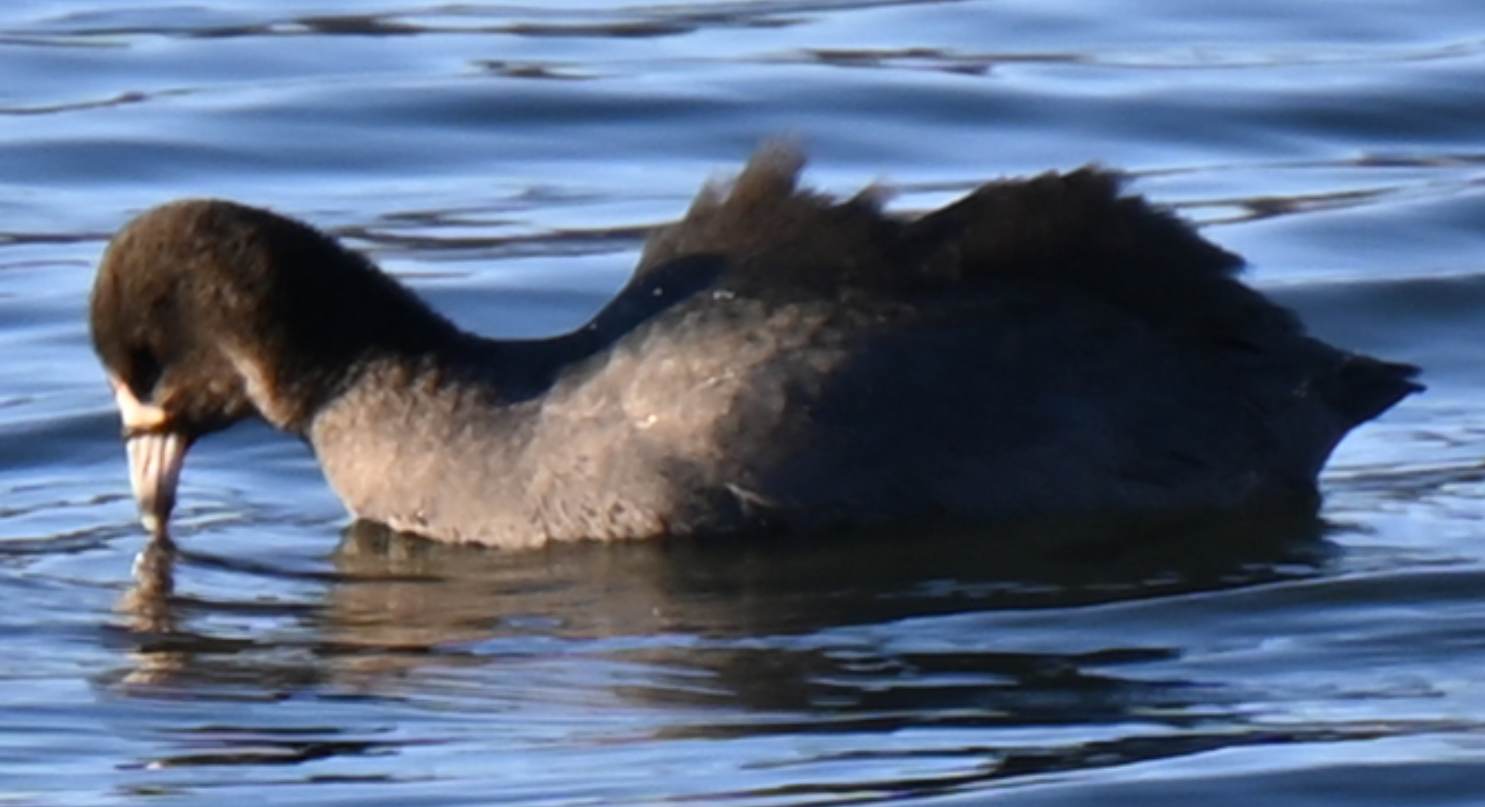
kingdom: Animalia
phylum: Chordata
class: Aves
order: Gruiformes
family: Rallidae
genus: Fulica
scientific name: Fulica americana
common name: American coot
